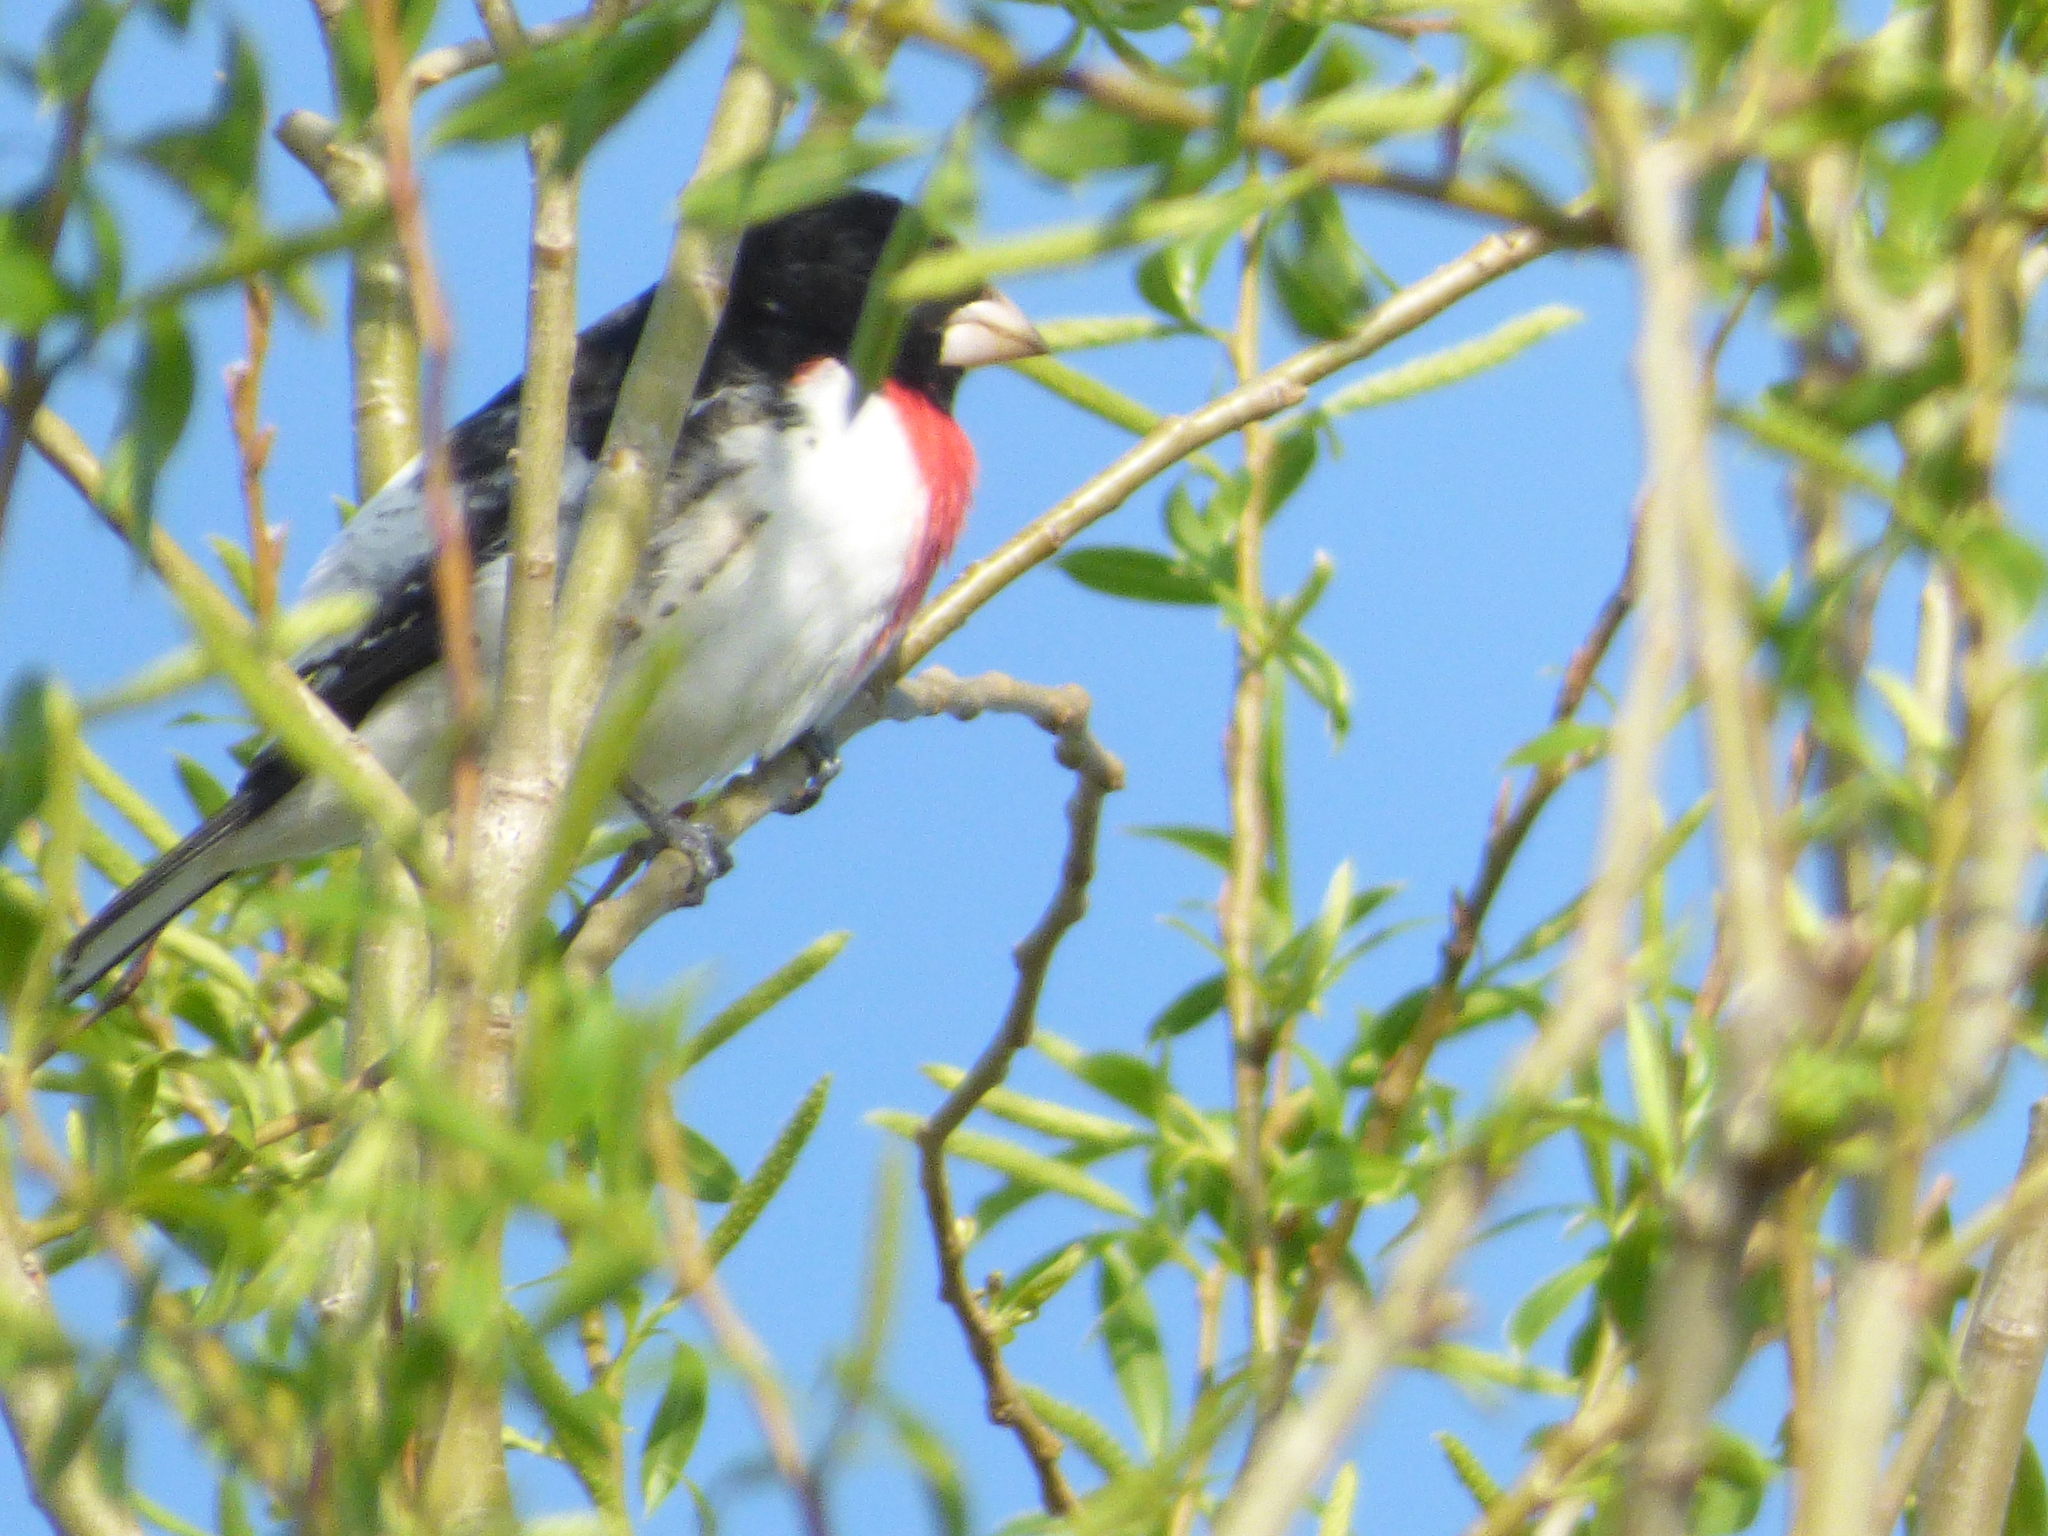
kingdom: Animalia
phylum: Chordata
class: Aves
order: Passeriformes
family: Cardinalidae
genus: Pheucticus
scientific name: Pheucticus ludovicianus
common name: Rose-breasted grosbeak
